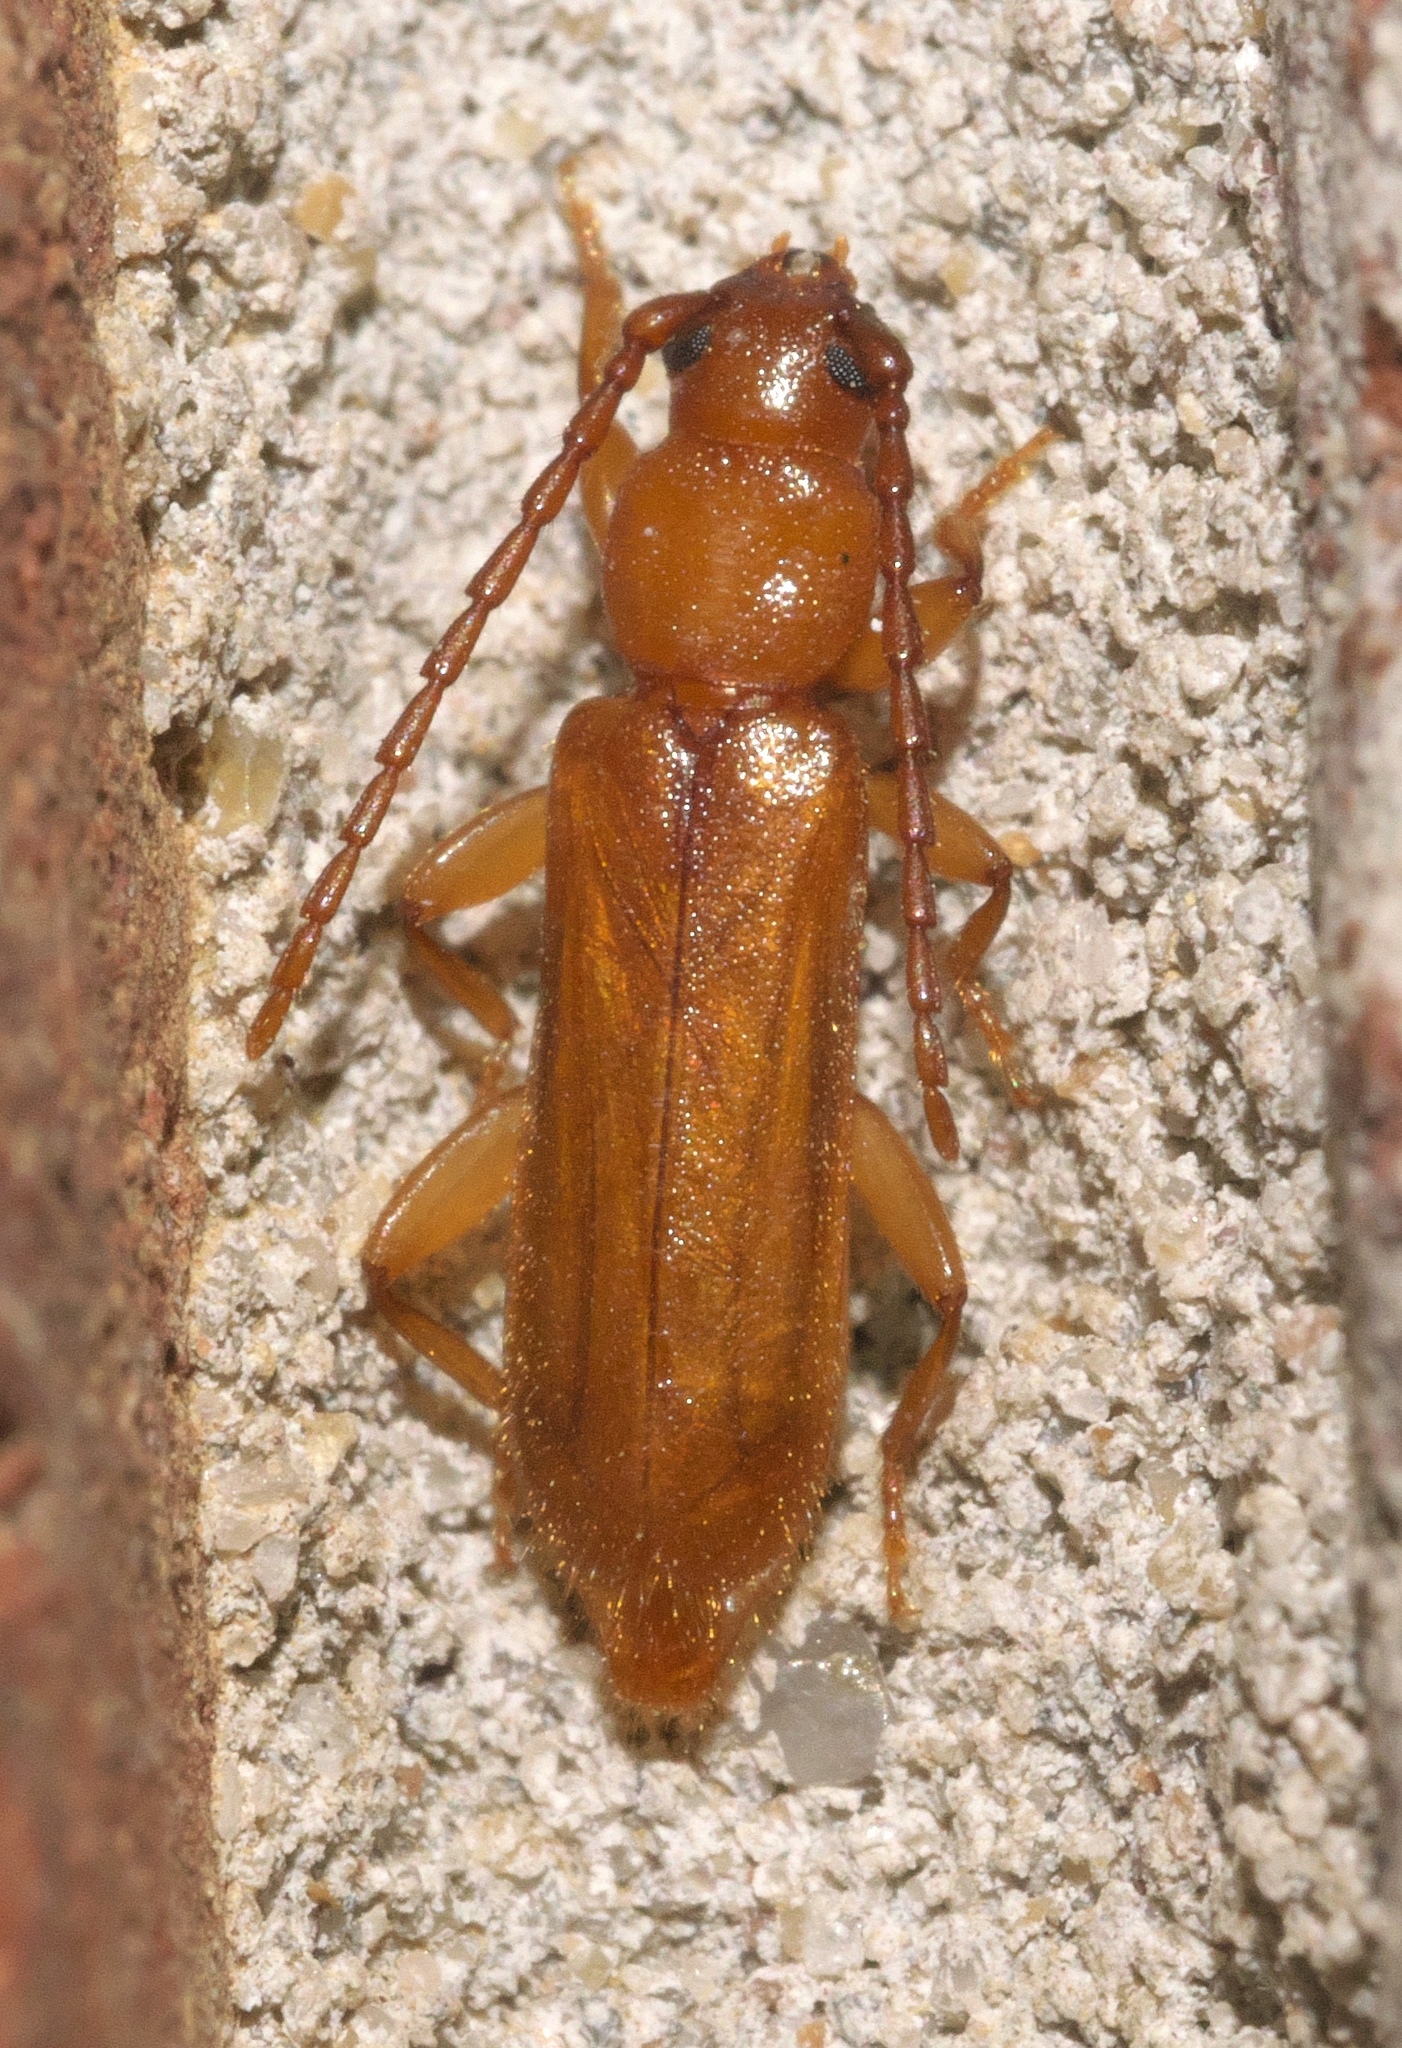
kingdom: Animalia
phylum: Arthropoda
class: Insecta
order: Coleoptera
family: Cerambycidae
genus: Smodicum
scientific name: Smodicum cucujiforme
